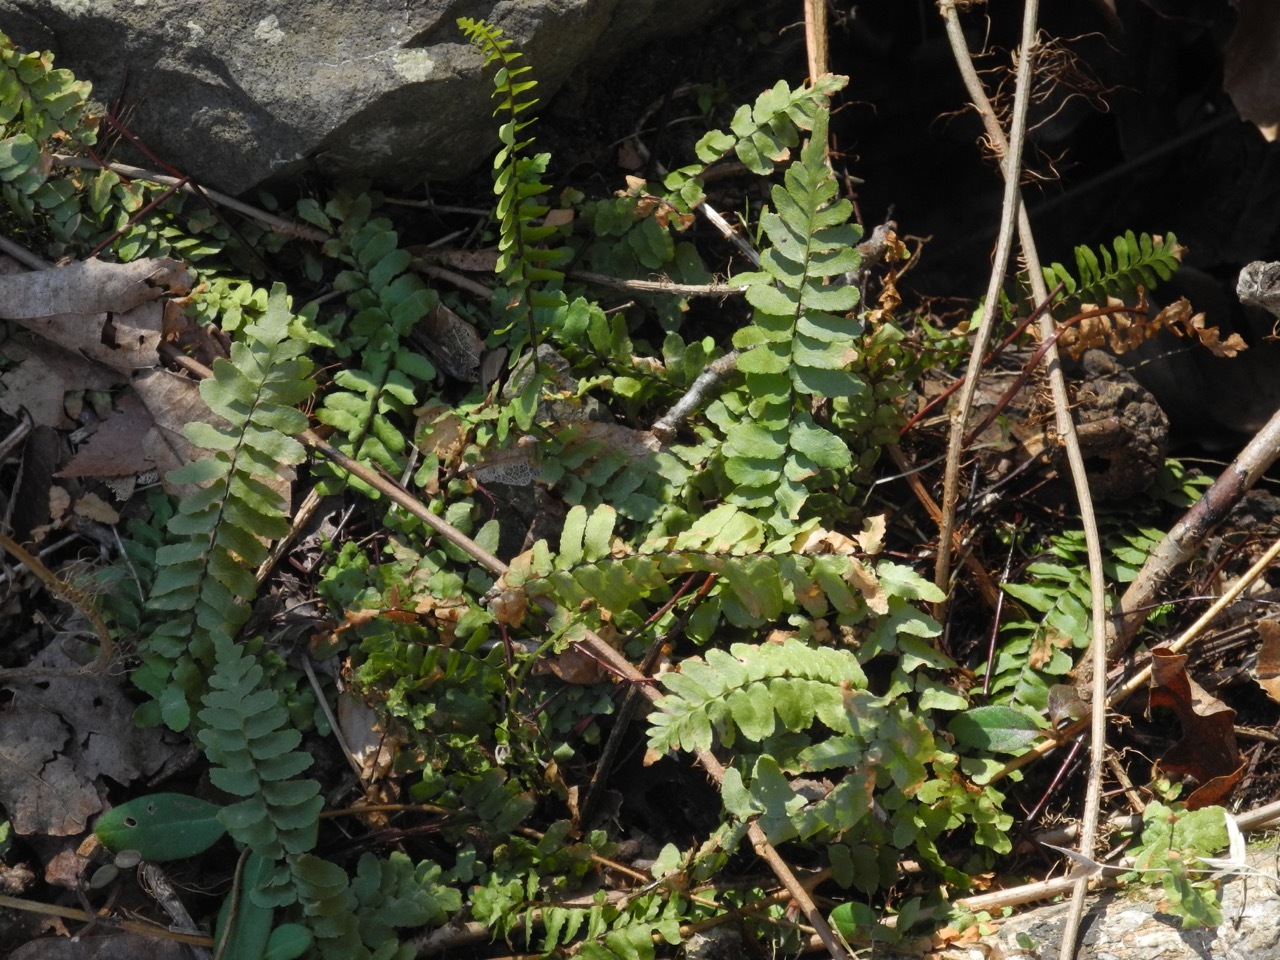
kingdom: Plantae
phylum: Tracheophyta
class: Polypodiopsida
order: Polypodiales
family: Aspleniaceae
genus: Asplenium
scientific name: Asplenium platyneuron
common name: Ebony spleenwort
